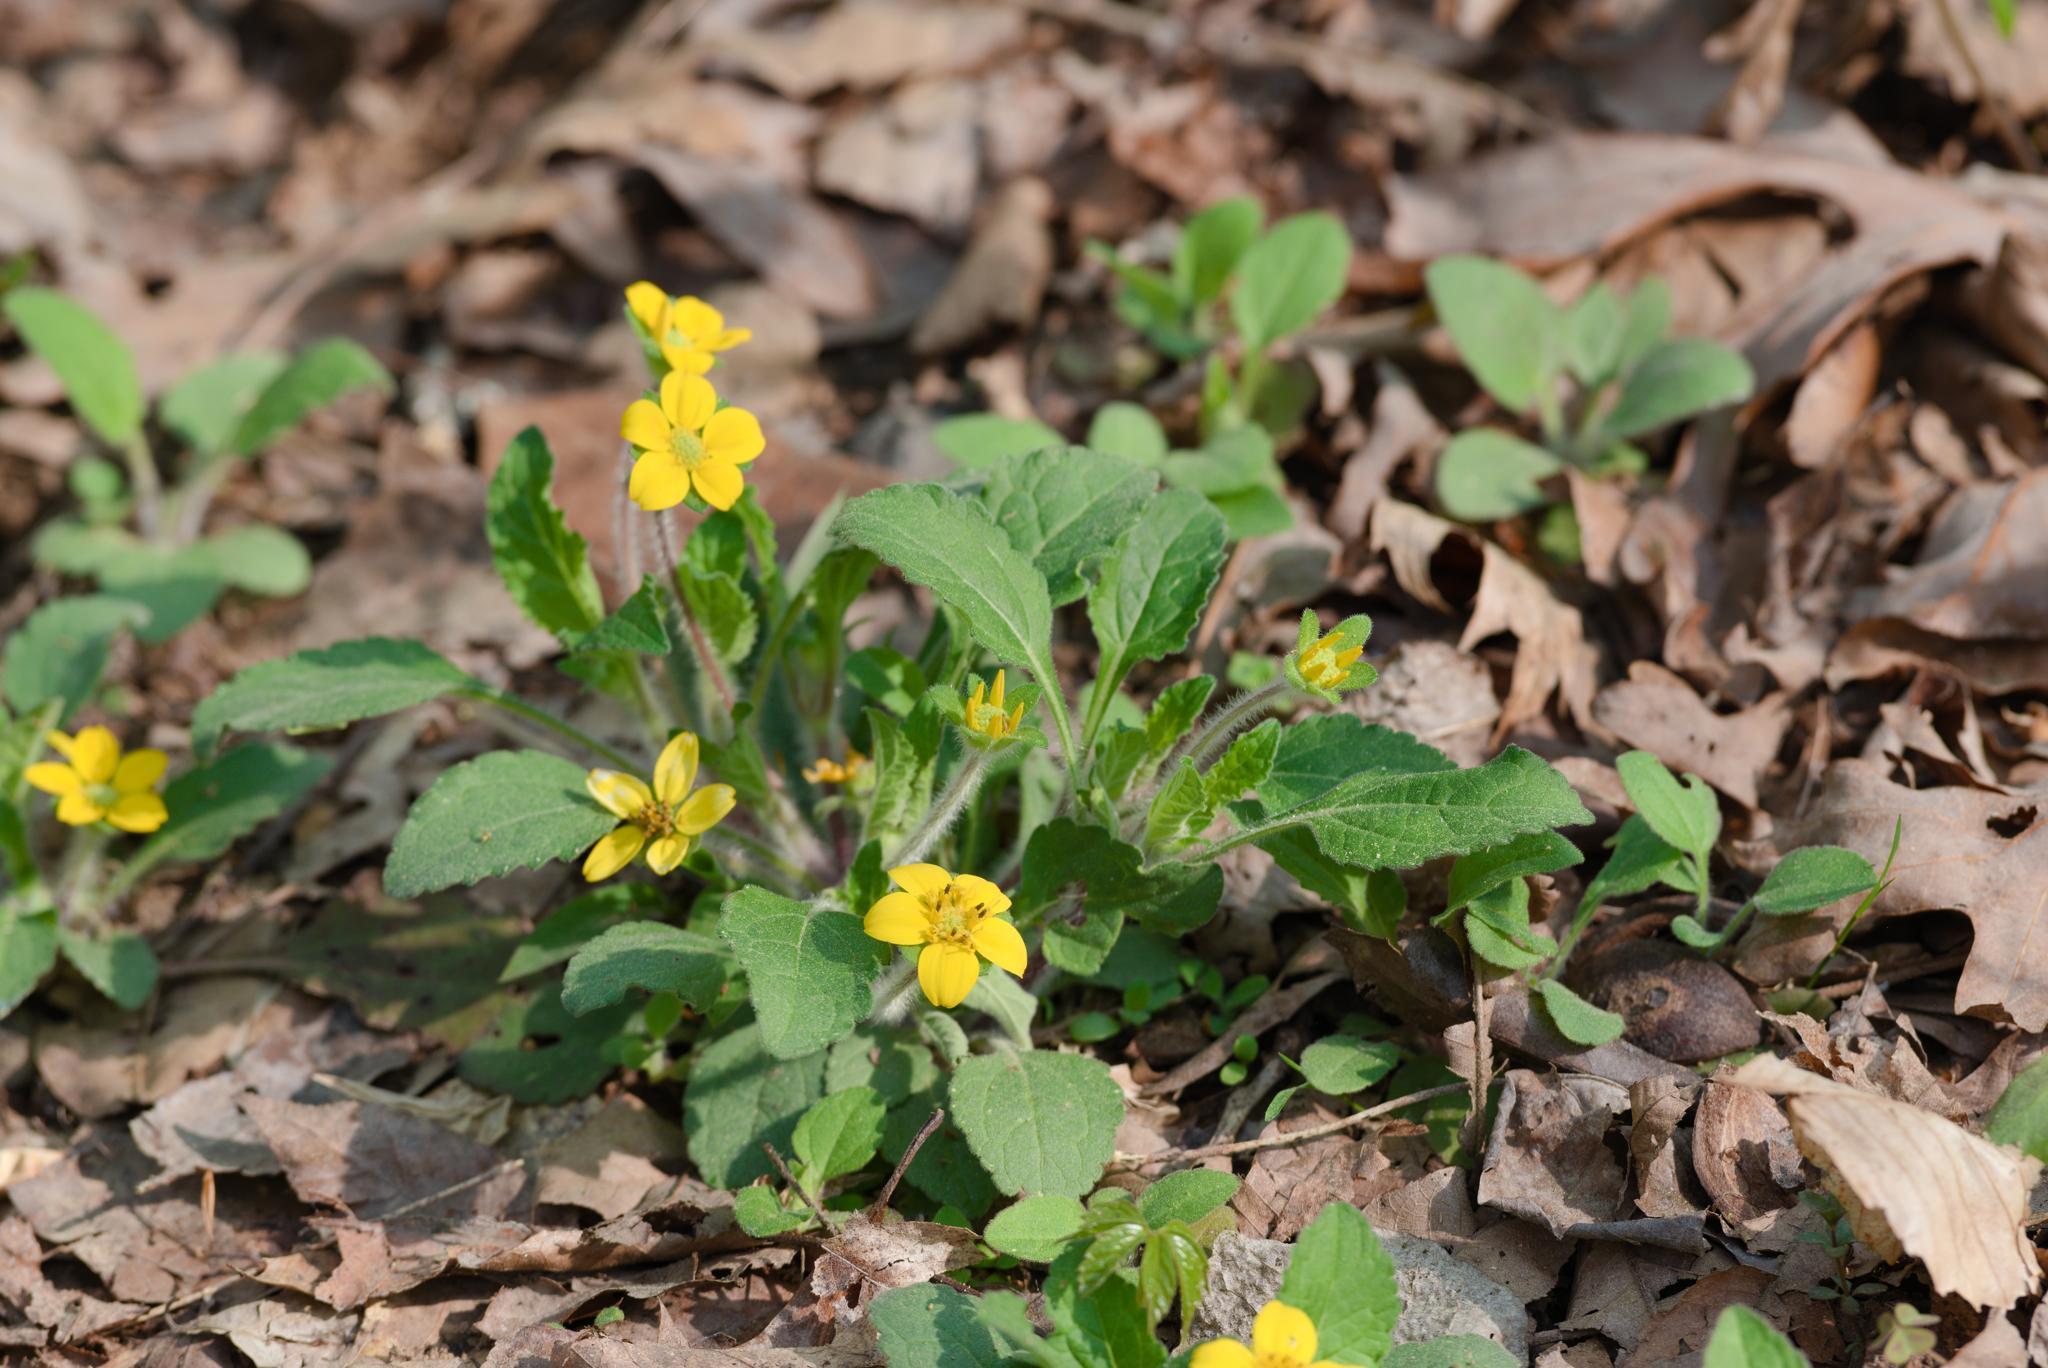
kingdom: Plantae
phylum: Tracheophyta
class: Magnoliopsida
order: Asterales
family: Asteraceae
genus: Chrysogonum
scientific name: Chrysogonum virginianum
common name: Golden-knee
